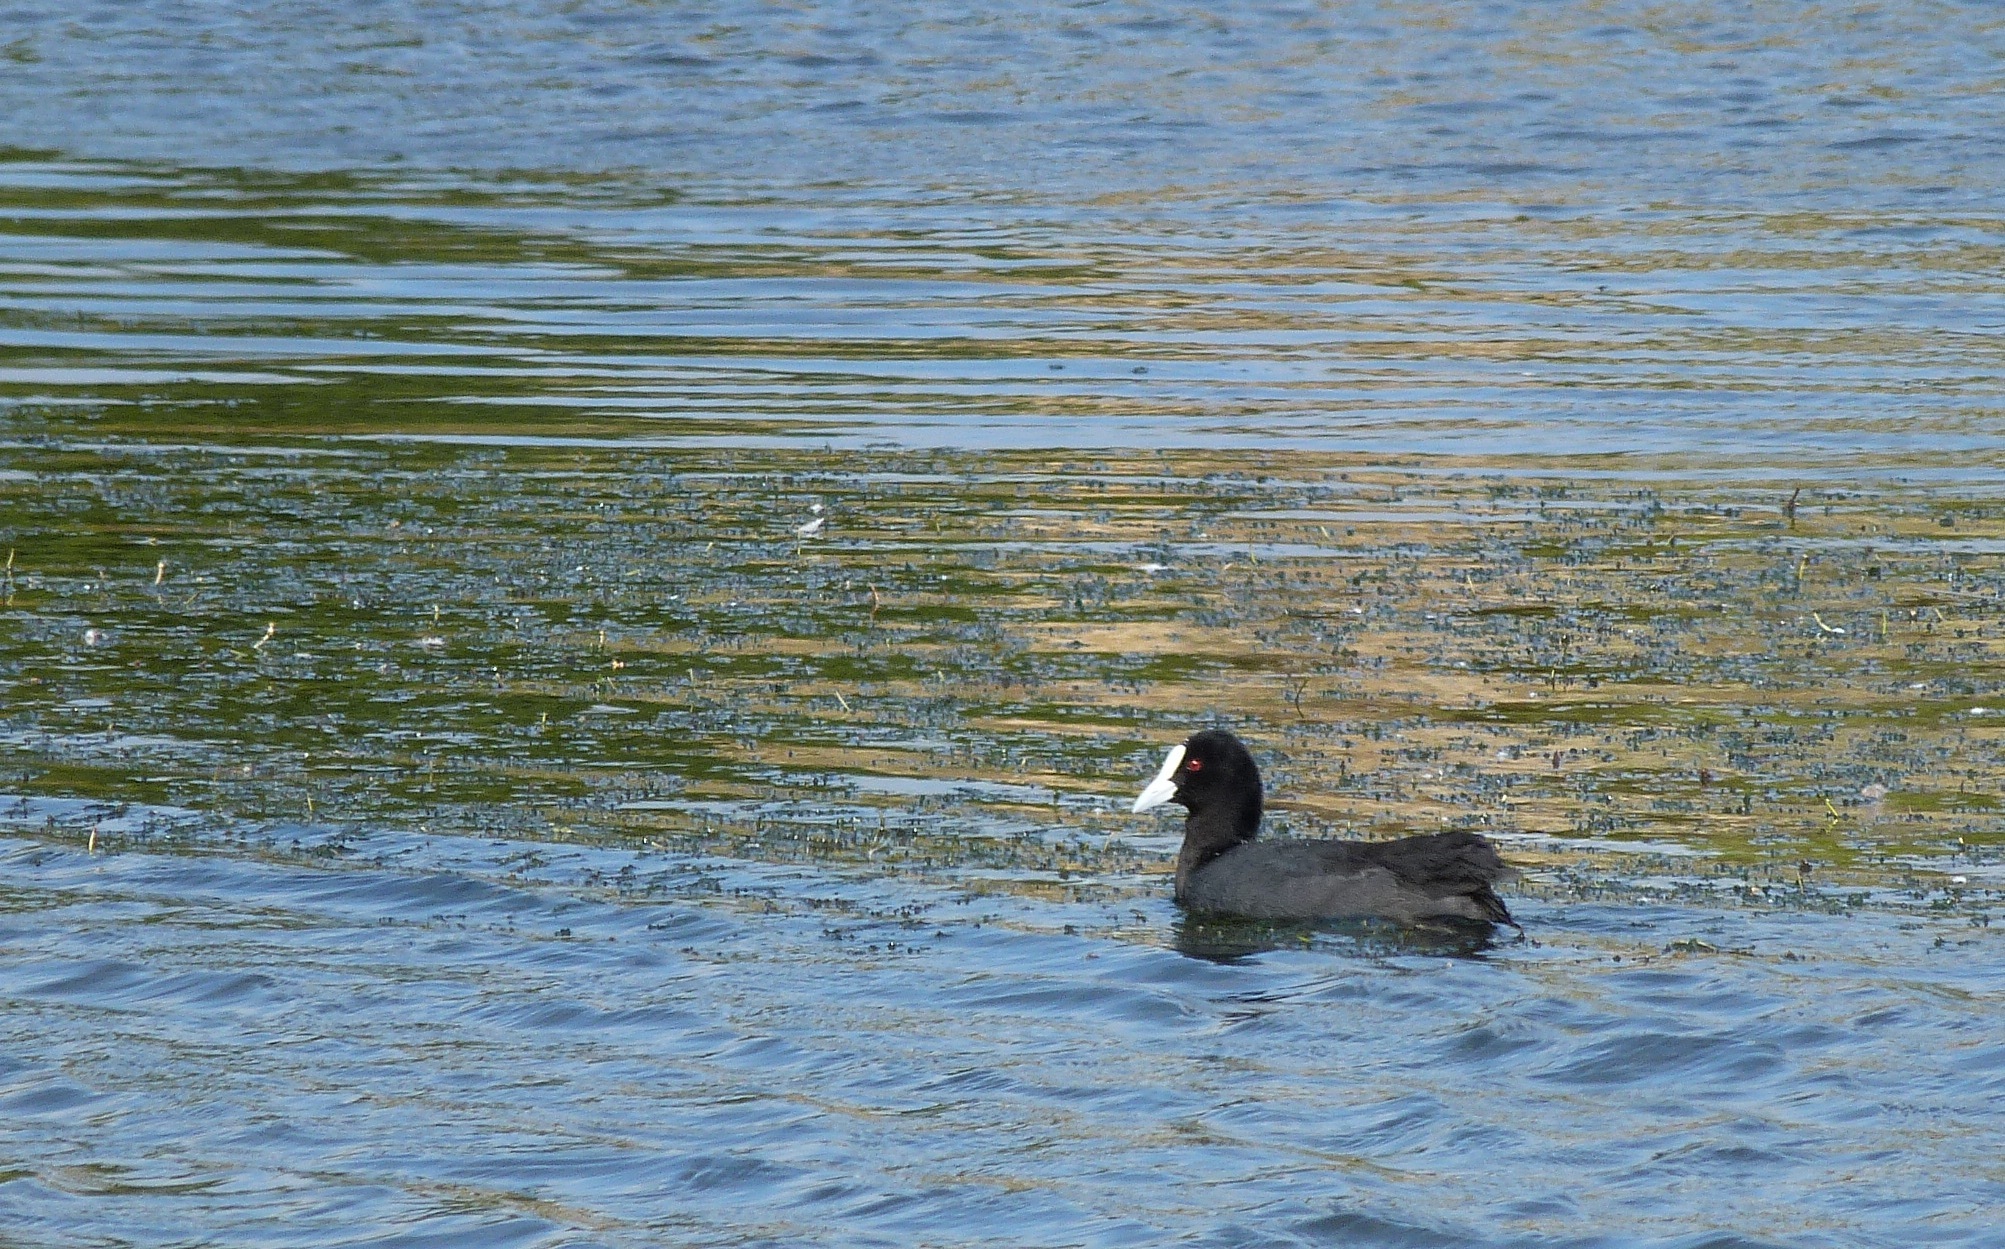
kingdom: Animalia
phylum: Chordata
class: Aves
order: Gruiformes
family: Rallidae
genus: Fulica
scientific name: Fulica atra
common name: Eurasian coot
